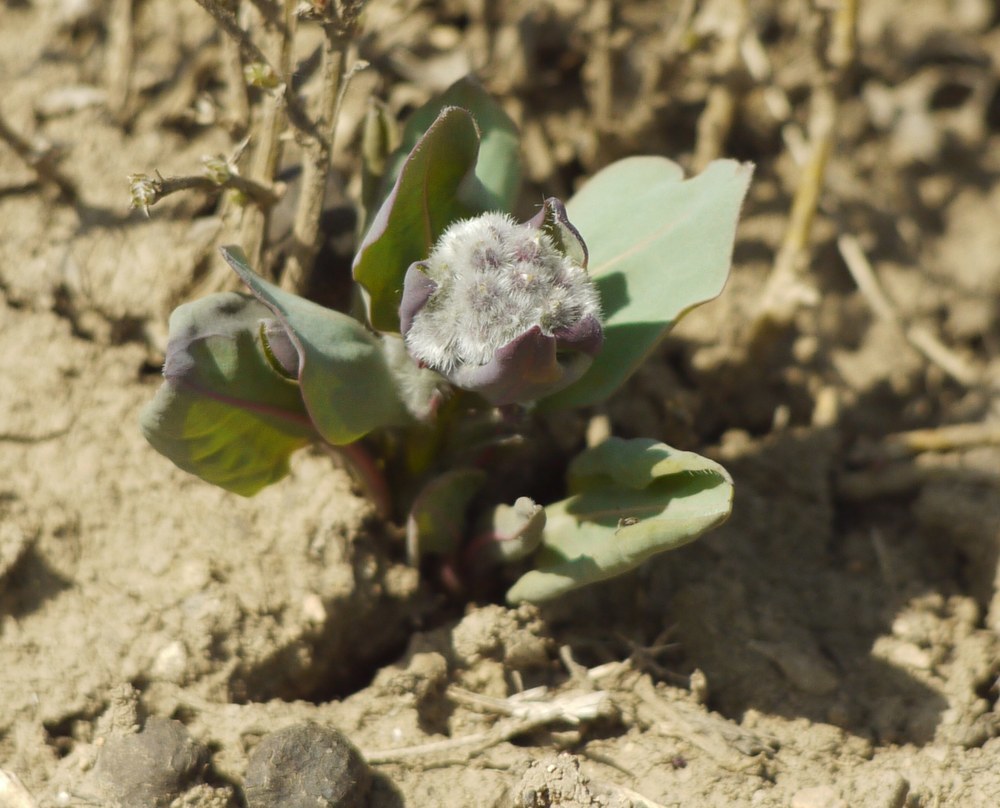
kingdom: Plantae
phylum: Tracheophyta
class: Magnoliopsida
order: Boraginales
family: Boraginaceae
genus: Rindera
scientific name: Rindera tetraspis
